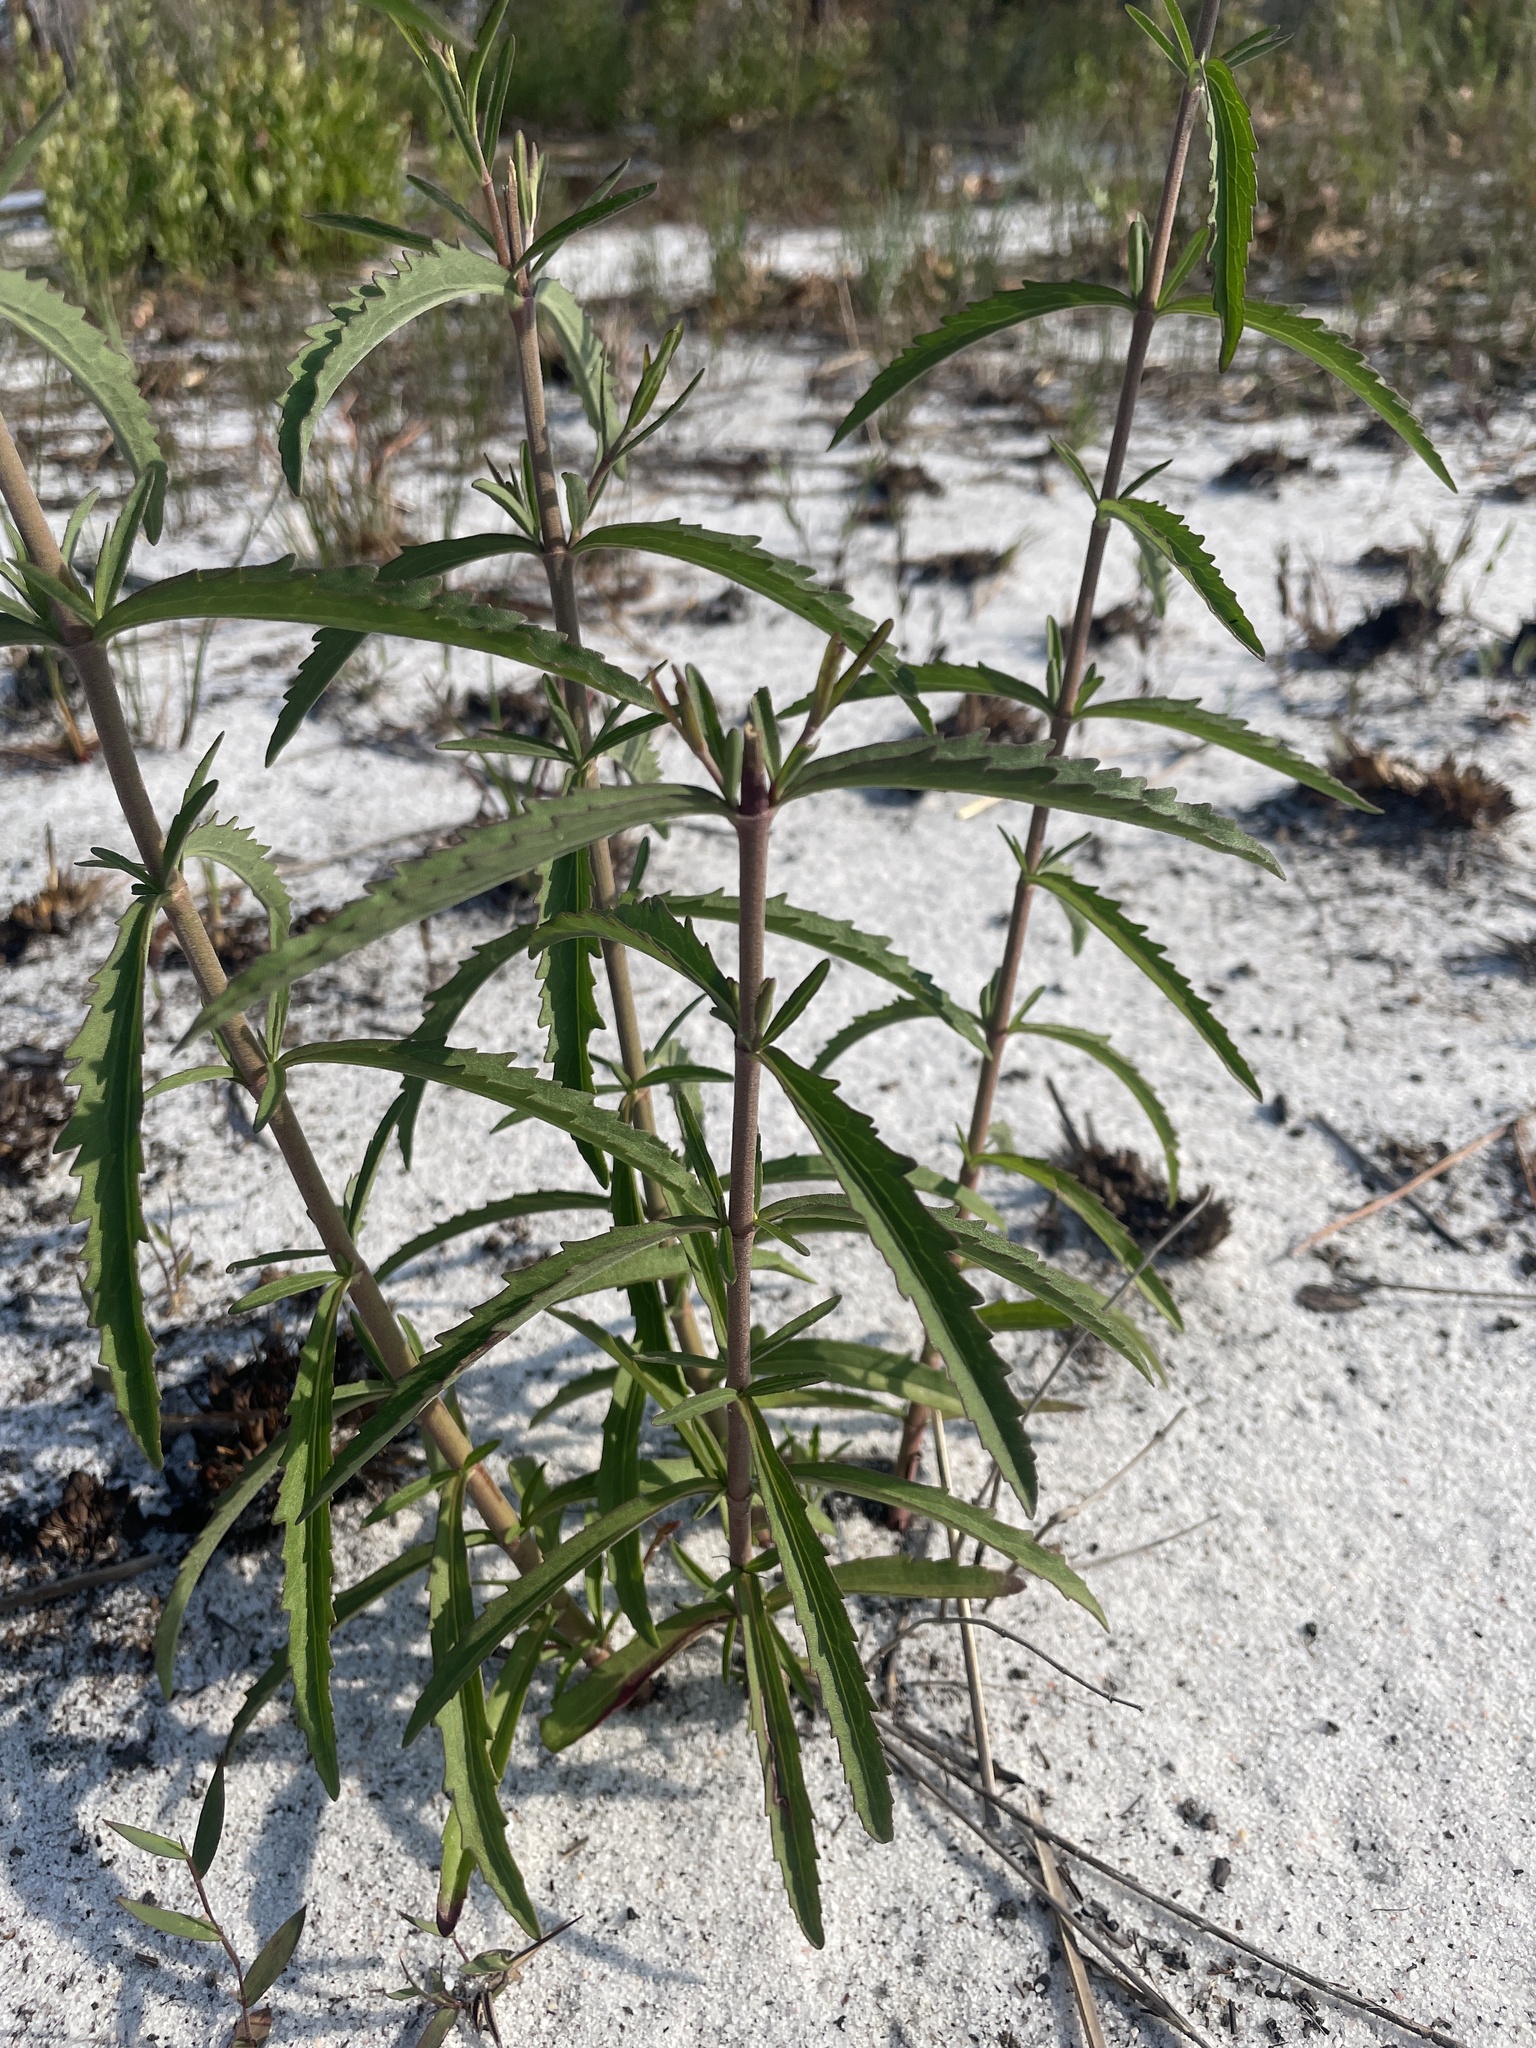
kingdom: Plantae
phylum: Tracheophyta
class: Magnoliopsida
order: Asterales
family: Asteraceae
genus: Eupatorium
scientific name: Eupatorium mohrii
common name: Mohr's thoroughwort
